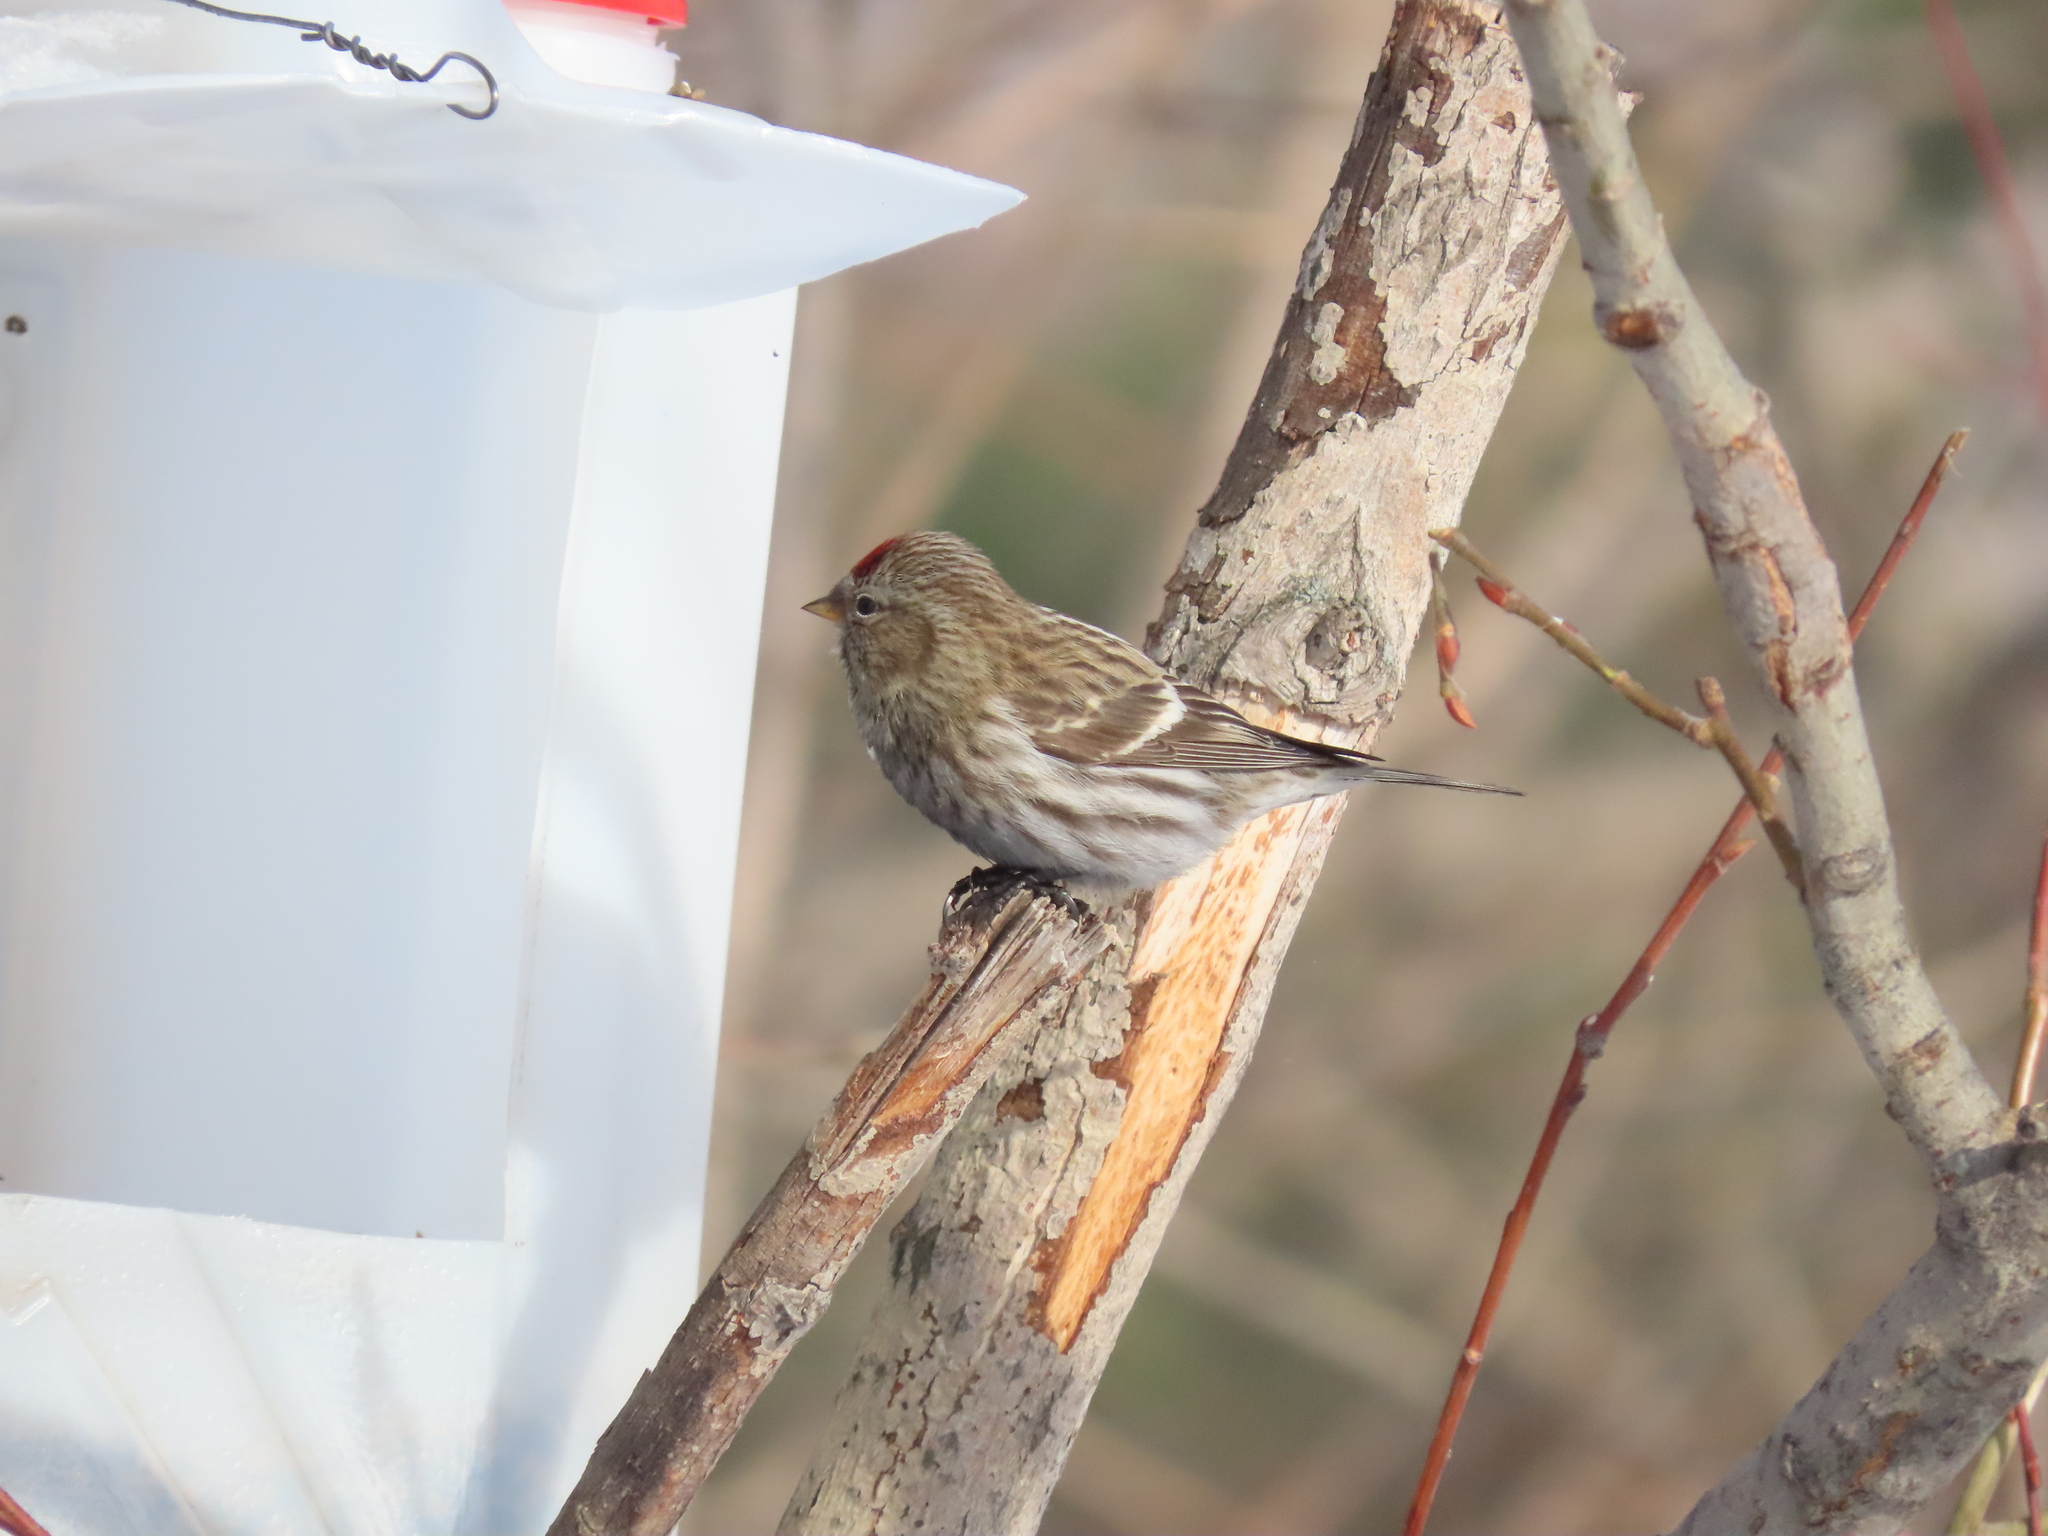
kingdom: Animalia
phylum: Chordata
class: Aves
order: Passeriformes
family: Fringillidae
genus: Acanthis
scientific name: Acanthis flammea
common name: Common redpoll
